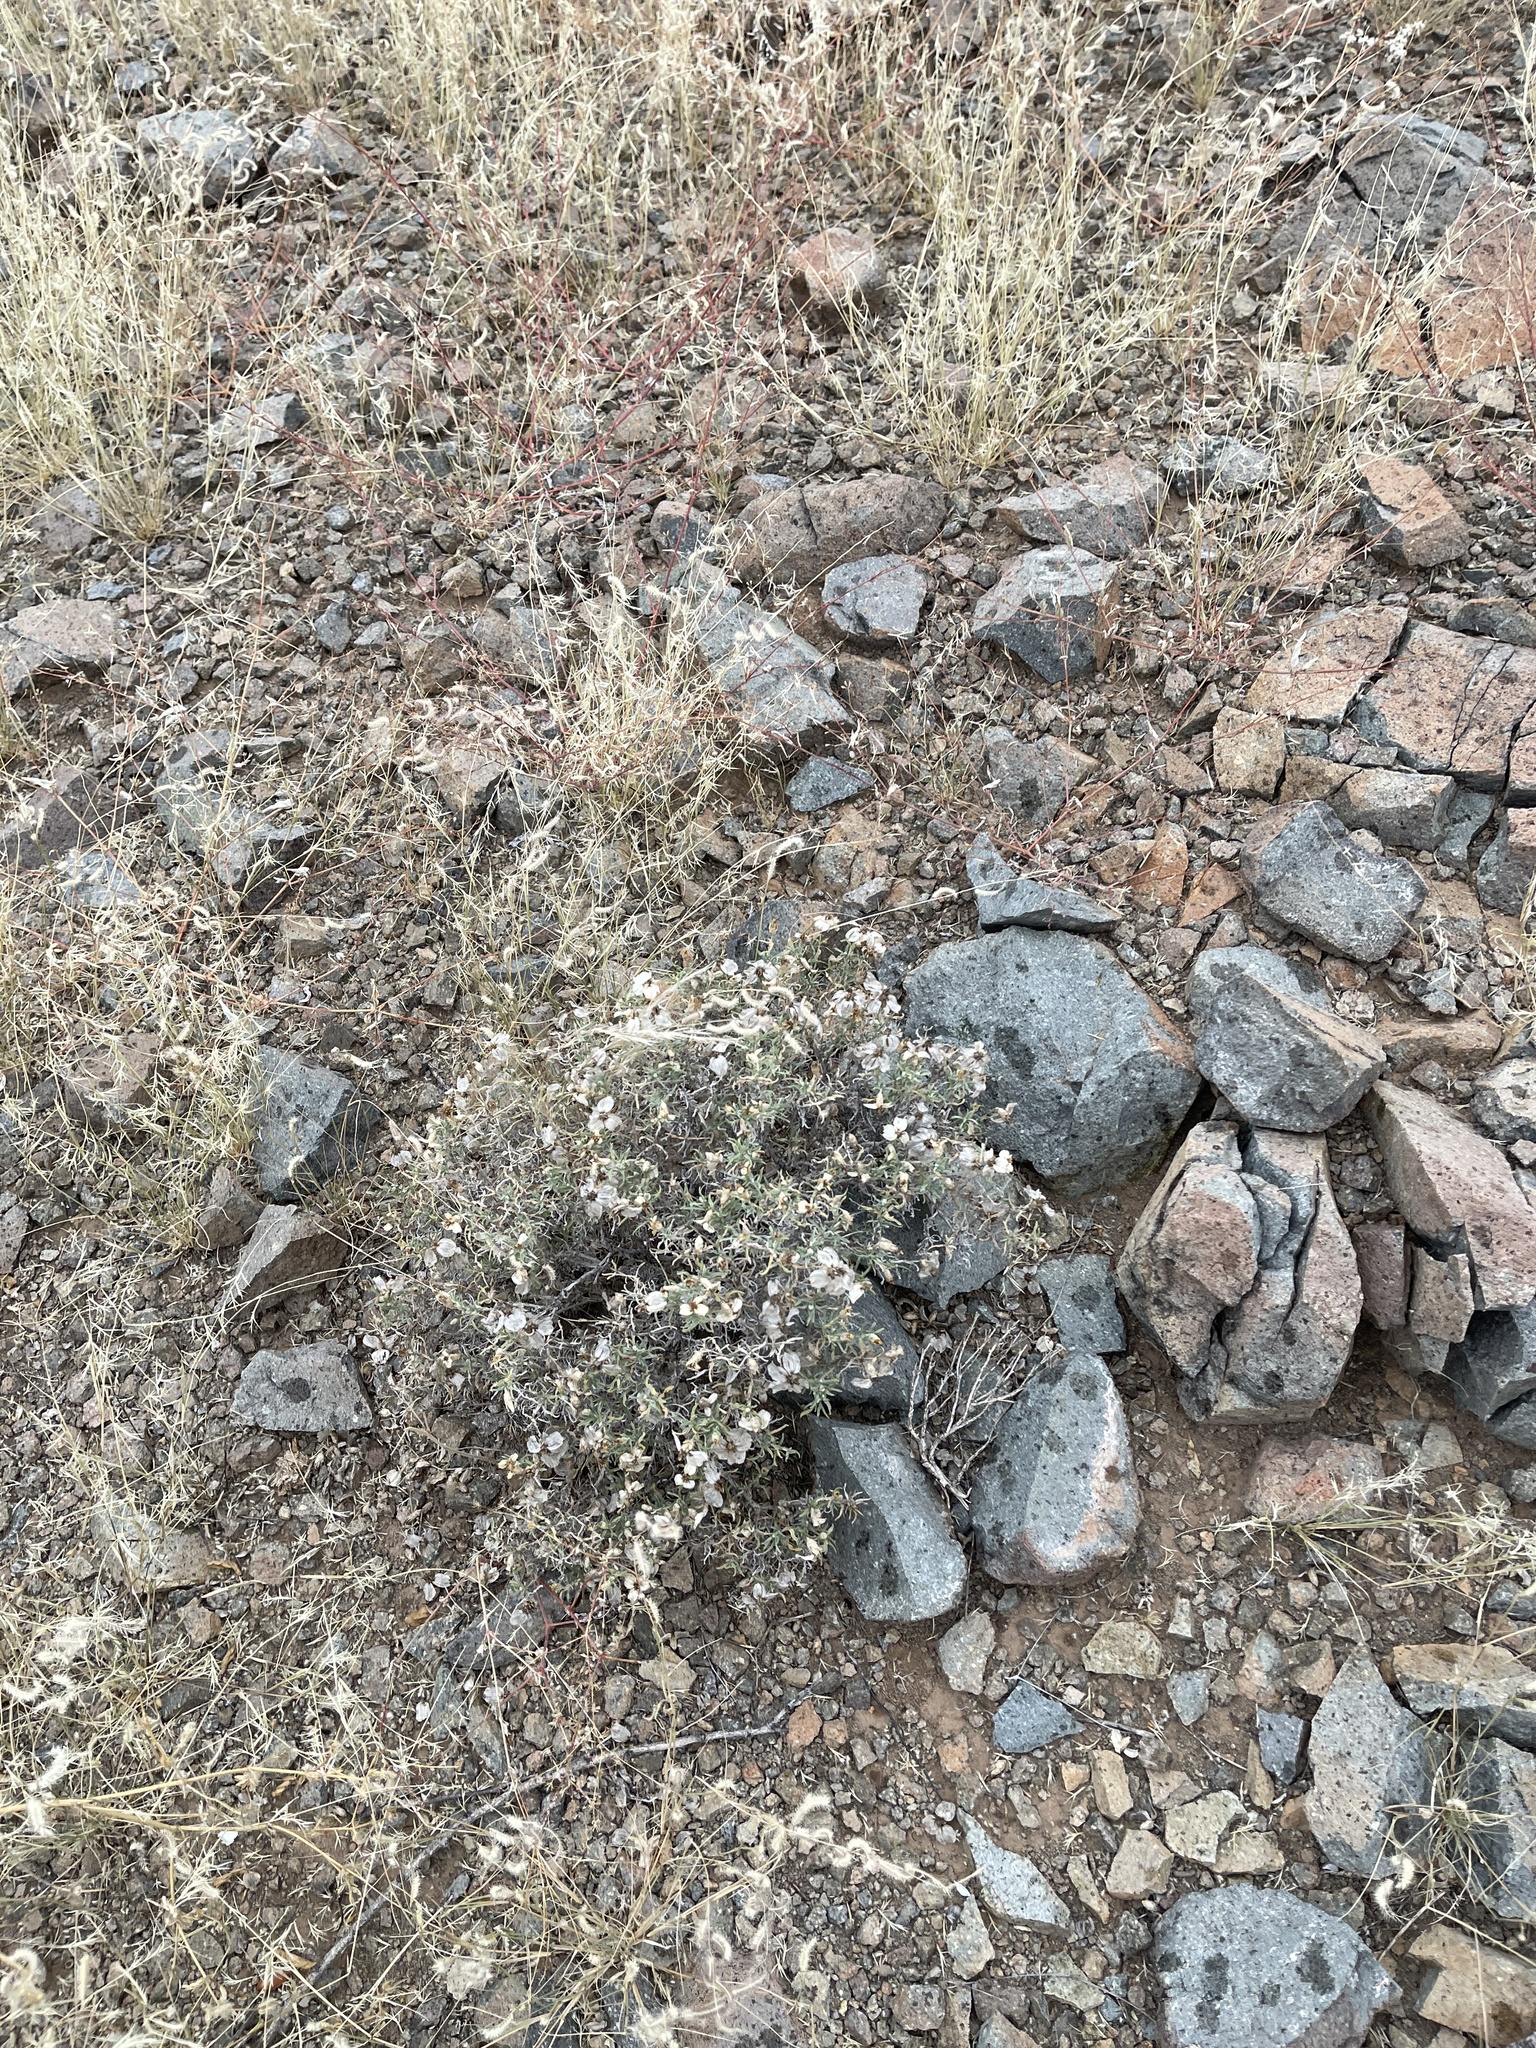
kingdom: Plantae
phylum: Tracheophyta
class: Magnoliopsida
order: Asterales
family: Asteraceae
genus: Zinnia
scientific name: Zinnia acerosa
